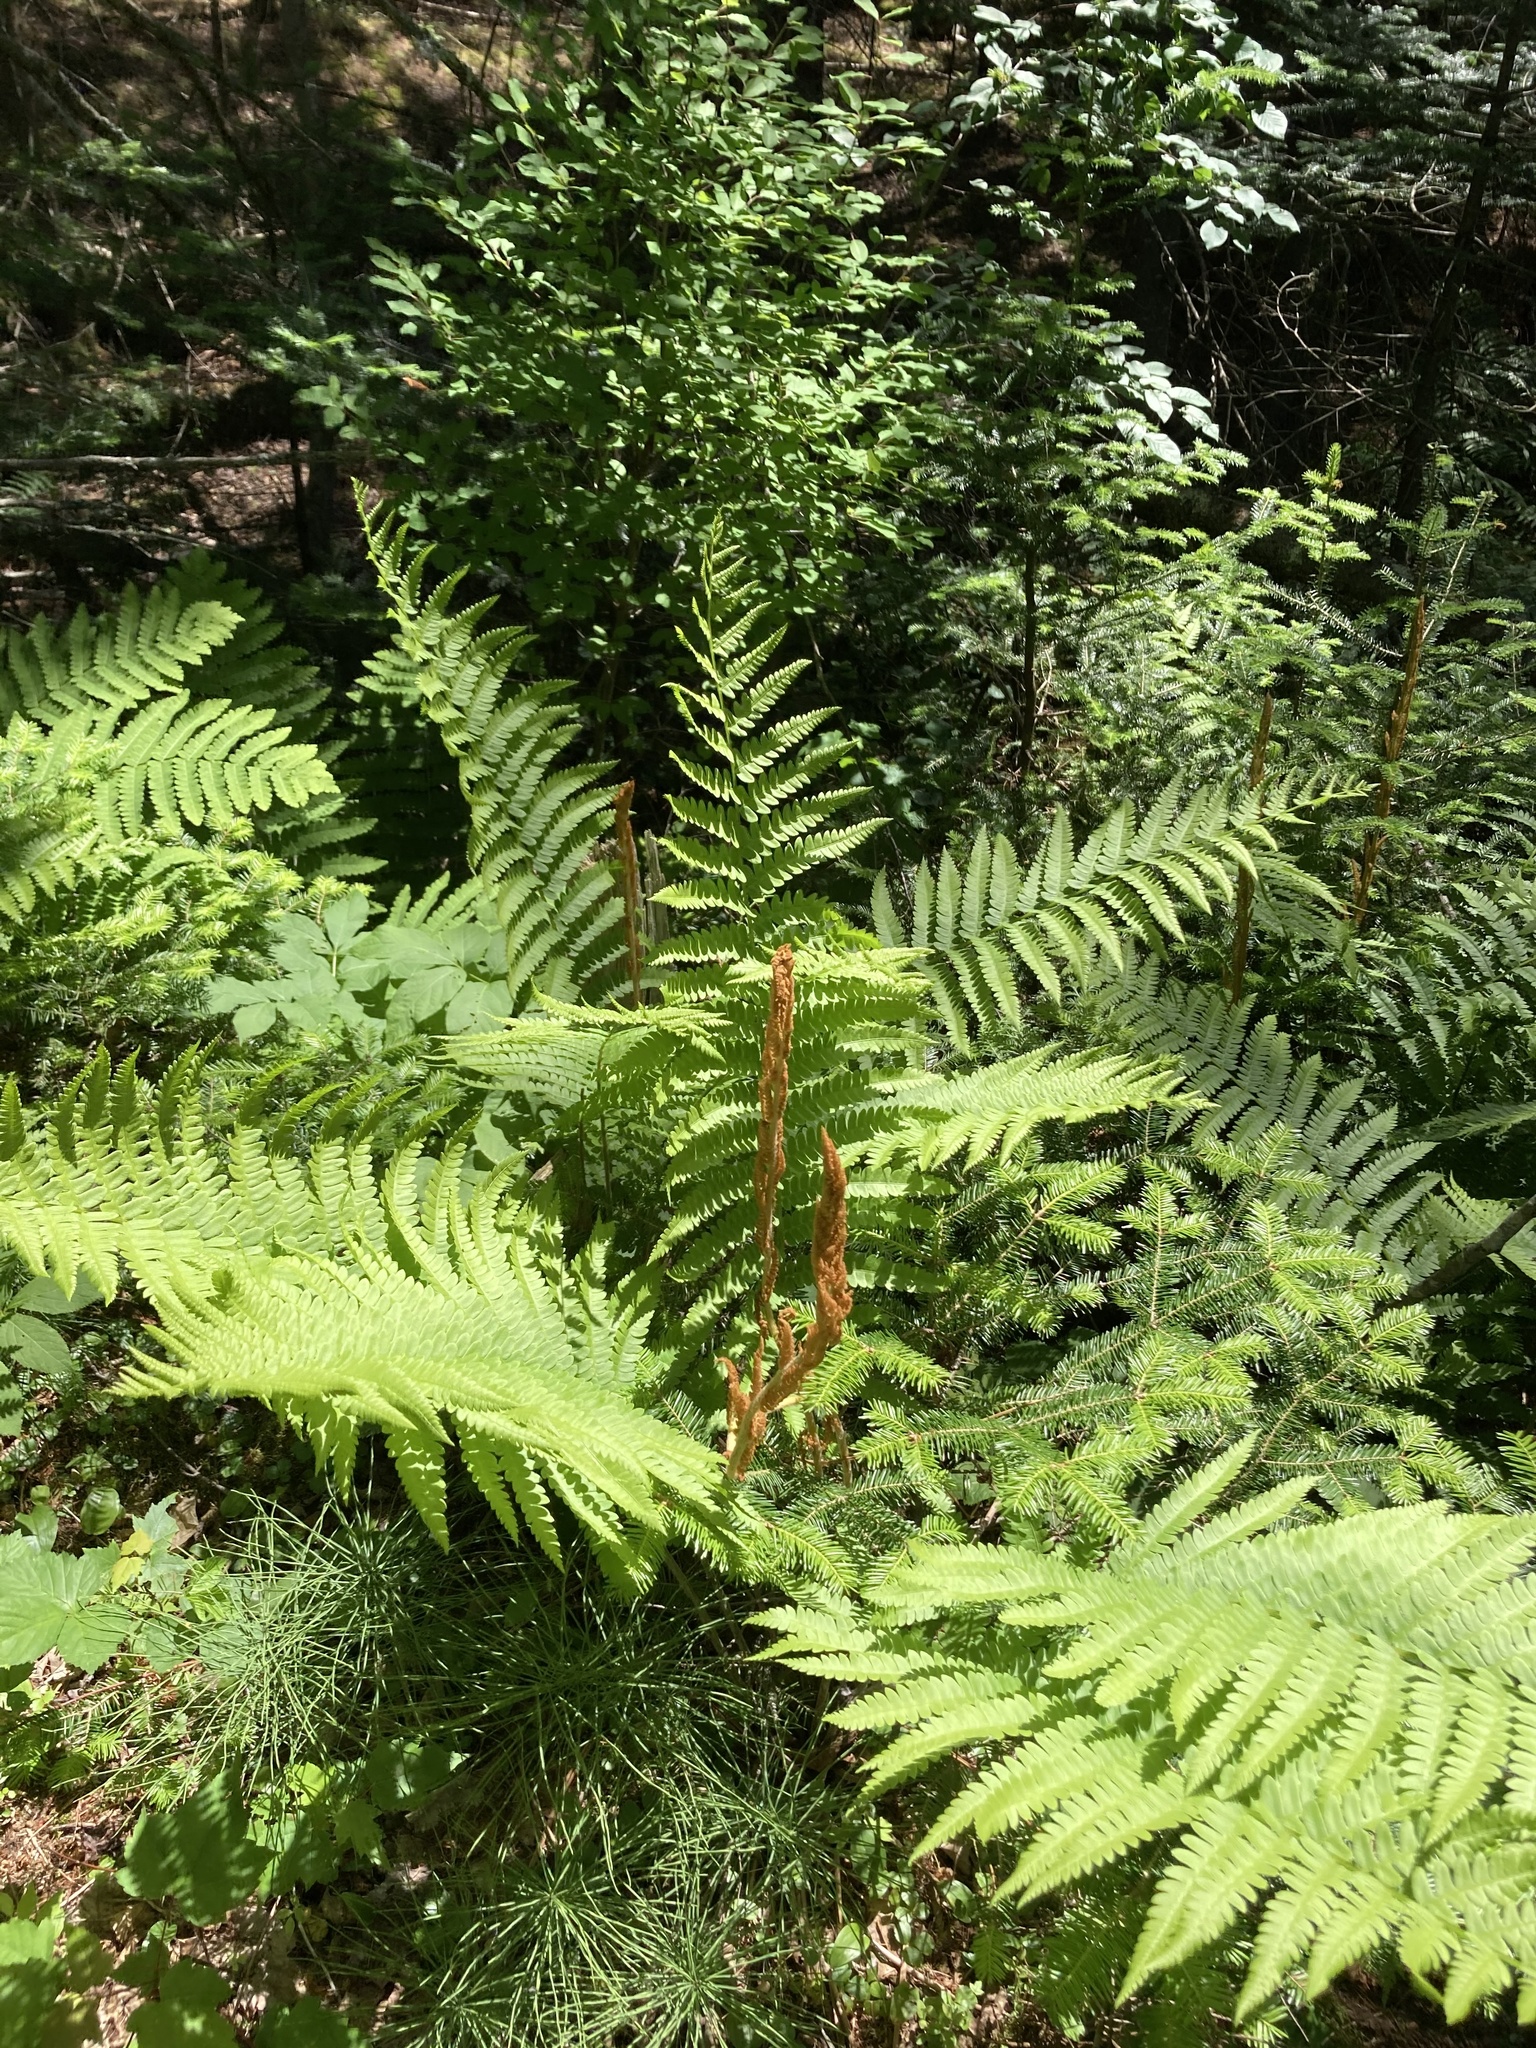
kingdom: Plantae
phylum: Tracheophyta
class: Polypodiopsida
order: Osmundales
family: Osmundaceae
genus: Osmundastrum
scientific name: Osmundastrum cinnamomeum
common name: Cinnamon fern
